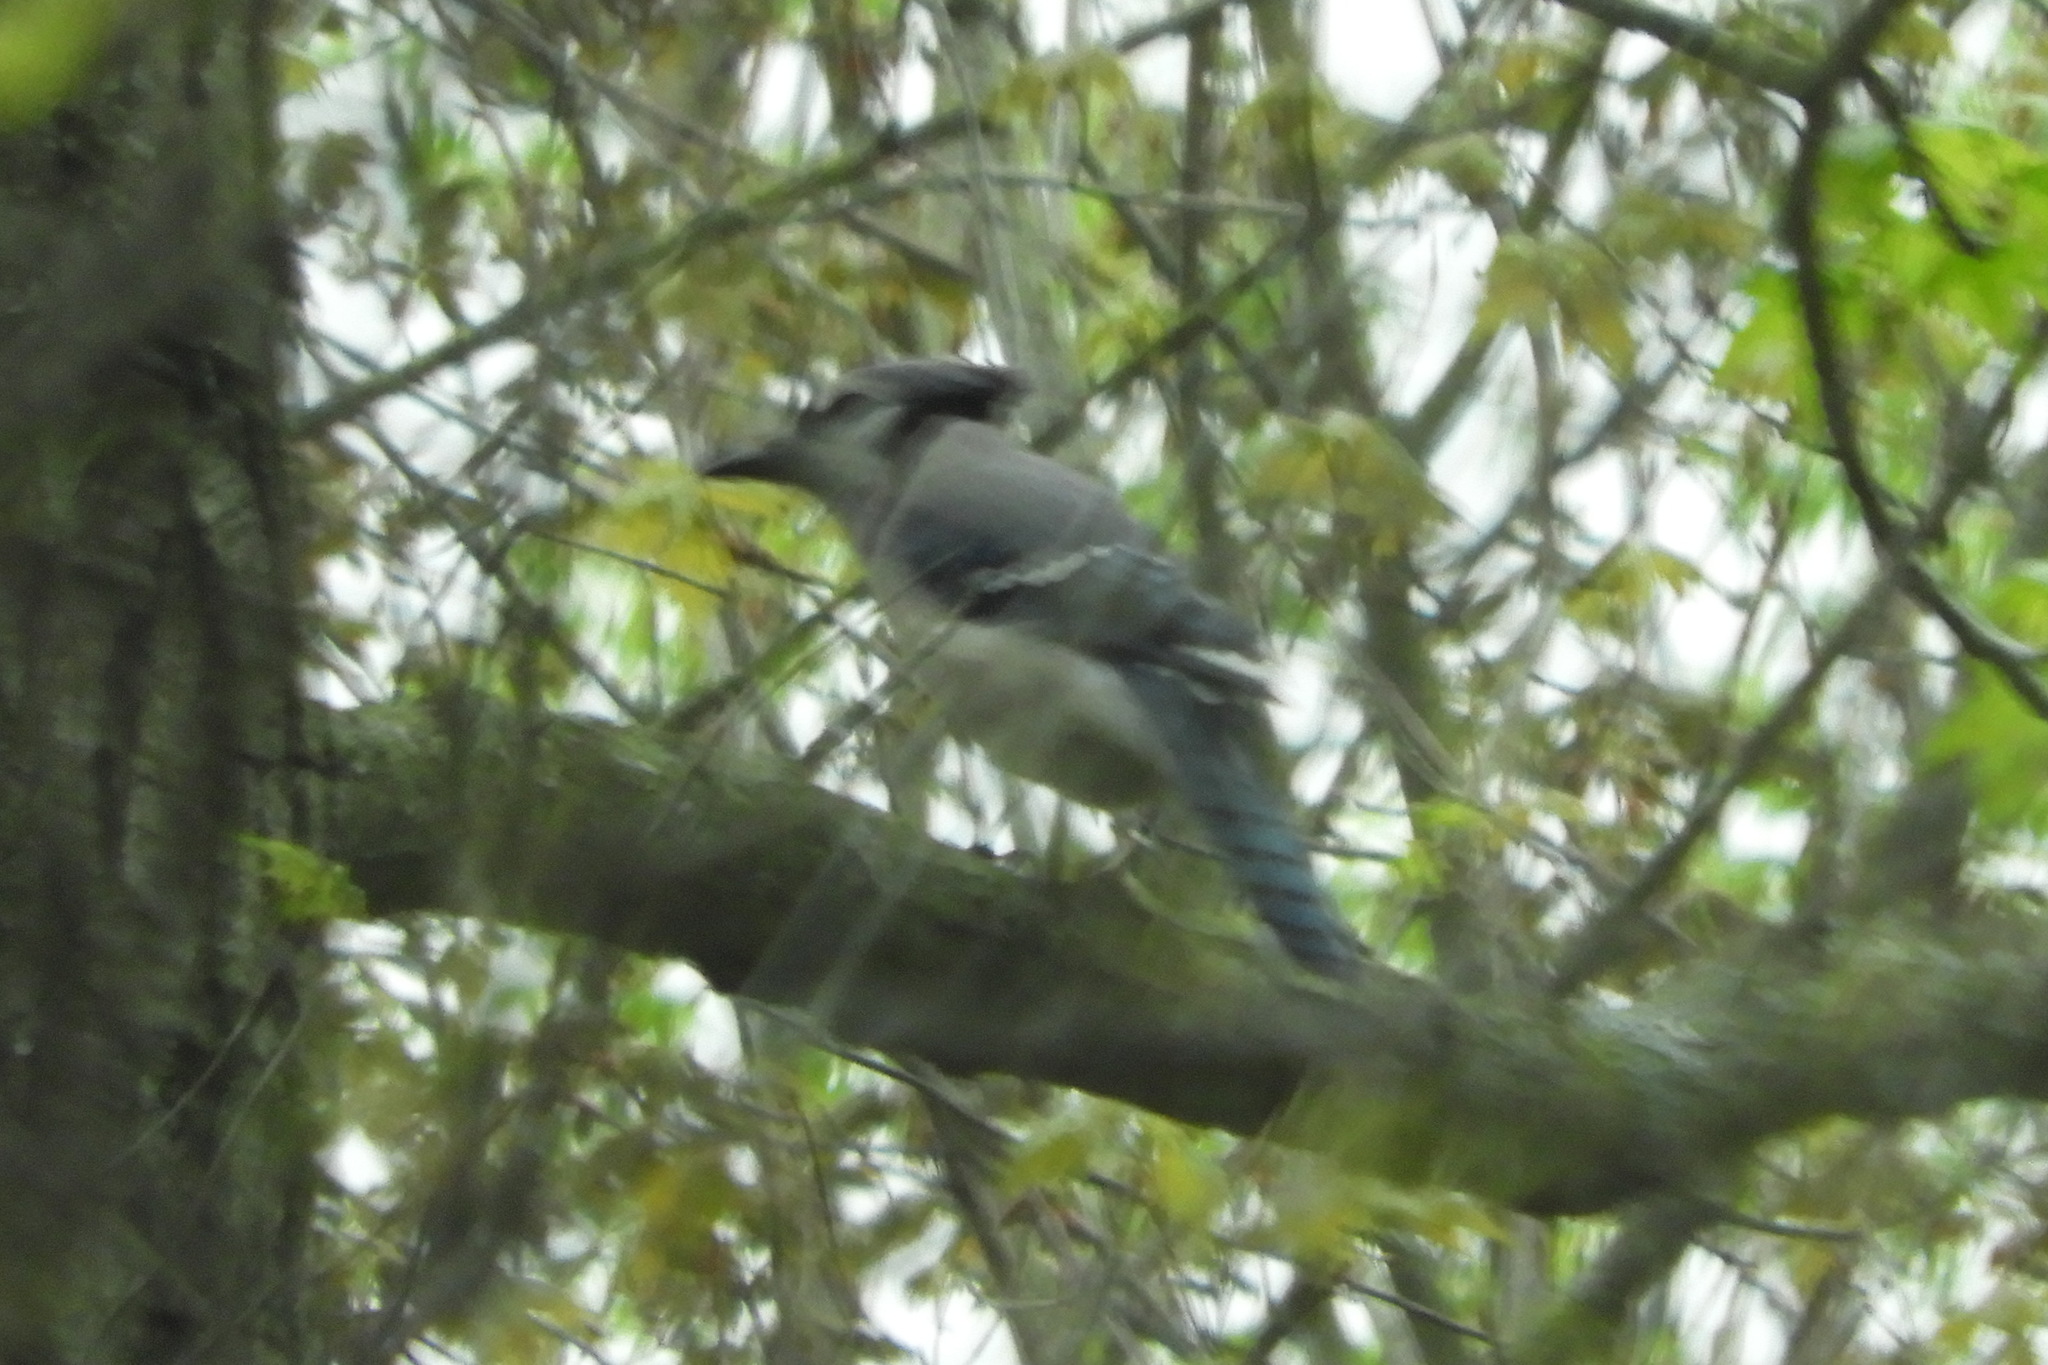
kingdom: Animalia
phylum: Chordata
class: Aves
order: Passeriformes
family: Corvidae
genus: Cyanocitta
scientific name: Cyanocitta cristata
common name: Blue jay
